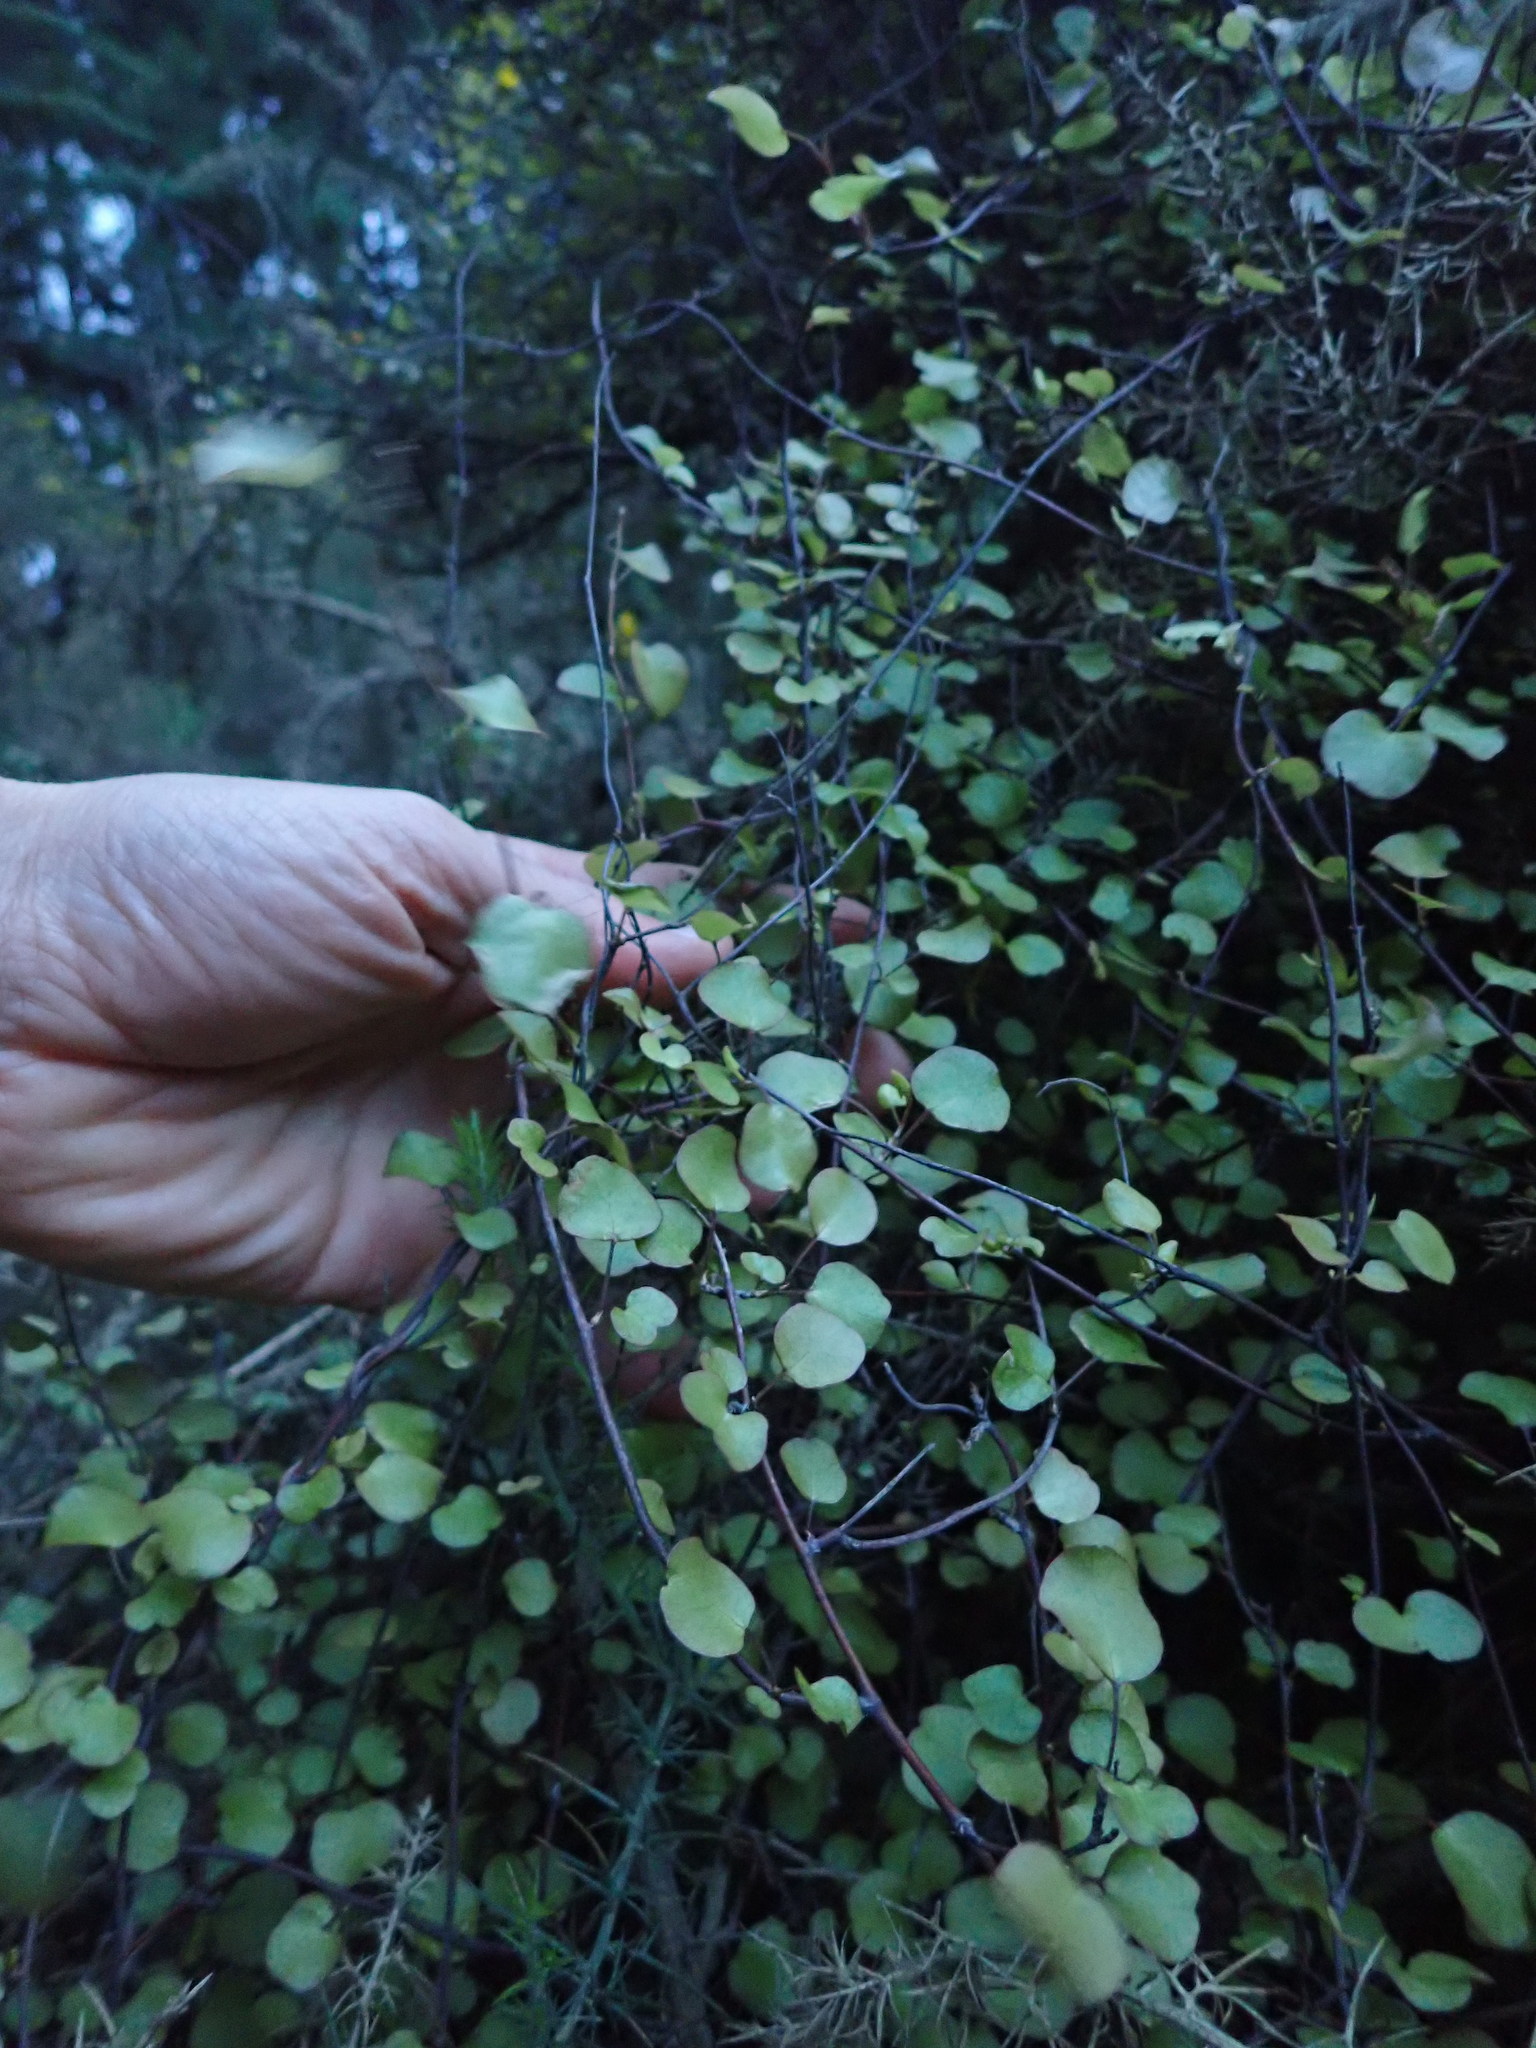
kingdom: Plantae
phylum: Tracheophyta
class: Magnoliopsida
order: Caryophyllales
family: Polygonaceae
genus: Muehlenbeckia
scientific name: Muehlenbeckia complexa
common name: Wireplant
